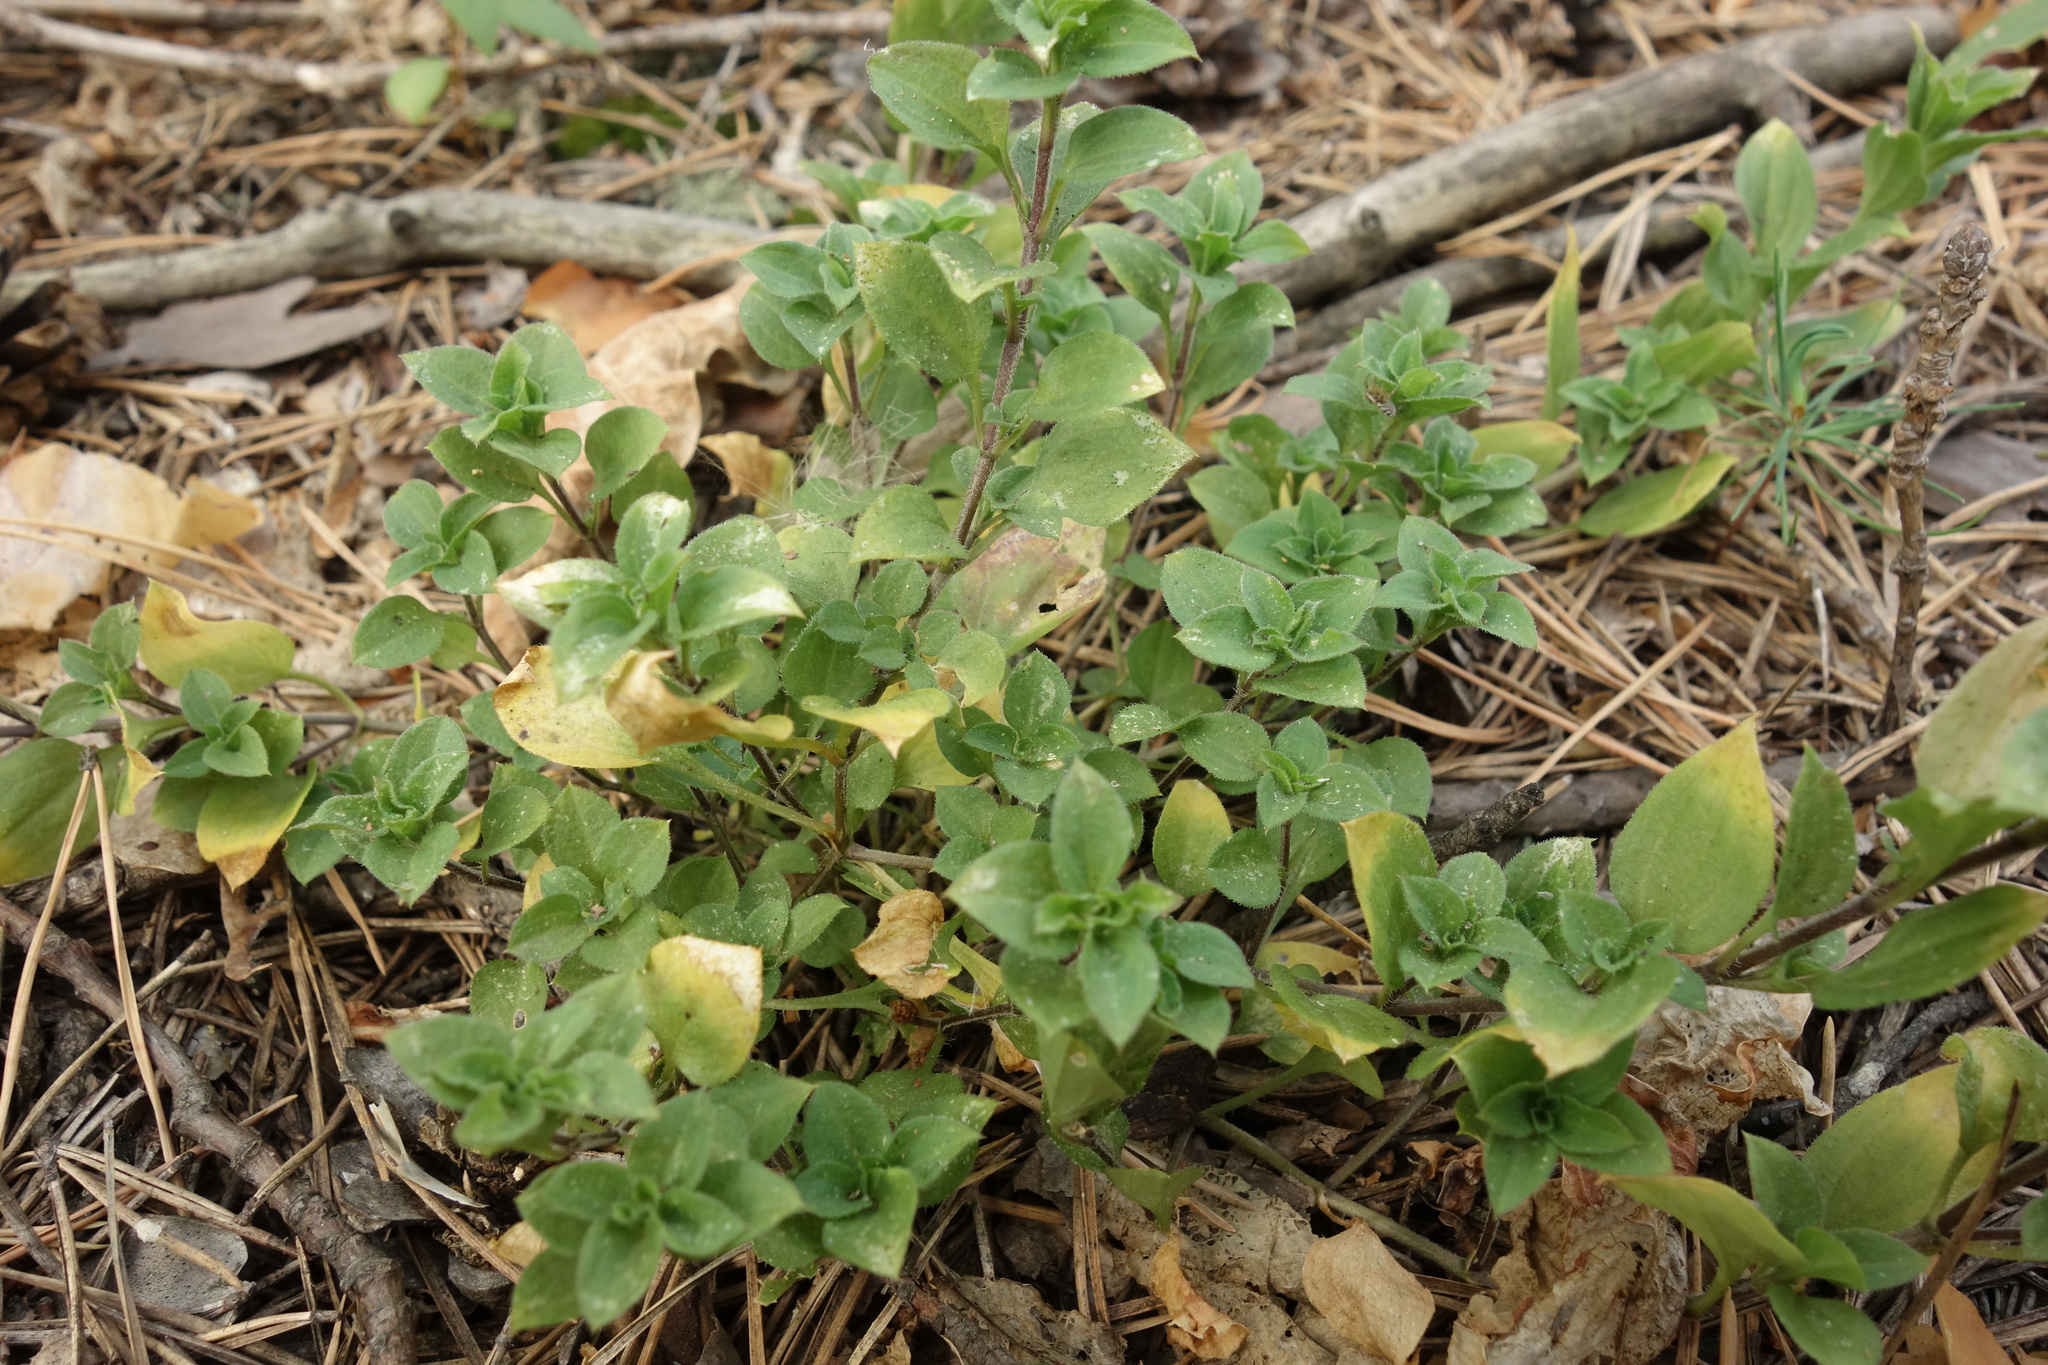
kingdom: Plantae
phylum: Tracheophyta
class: Magnoliopsida
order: Caryophyllales
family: Caryophyllaceae
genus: Moehringia
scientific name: Moehringia trinervia
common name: Three-nerved sandwort
